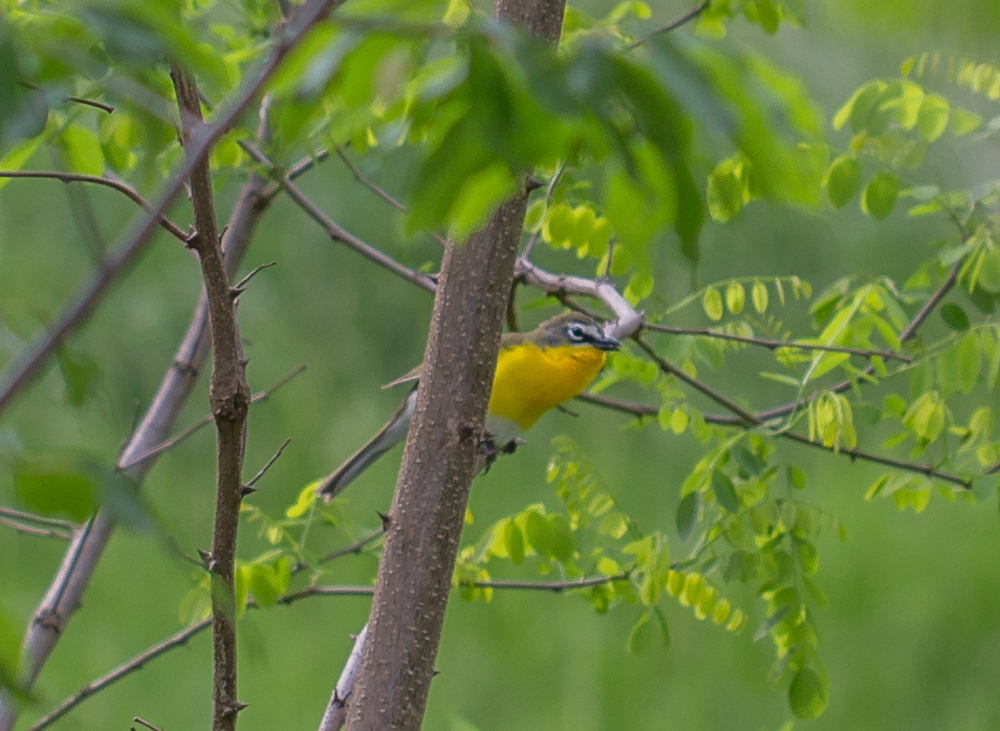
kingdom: Animalia
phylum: Chordata
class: Aves
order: Passeriformes
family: Parulidae
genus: Icteria
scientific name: Icteria virens
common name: Yellow-breasted chat
